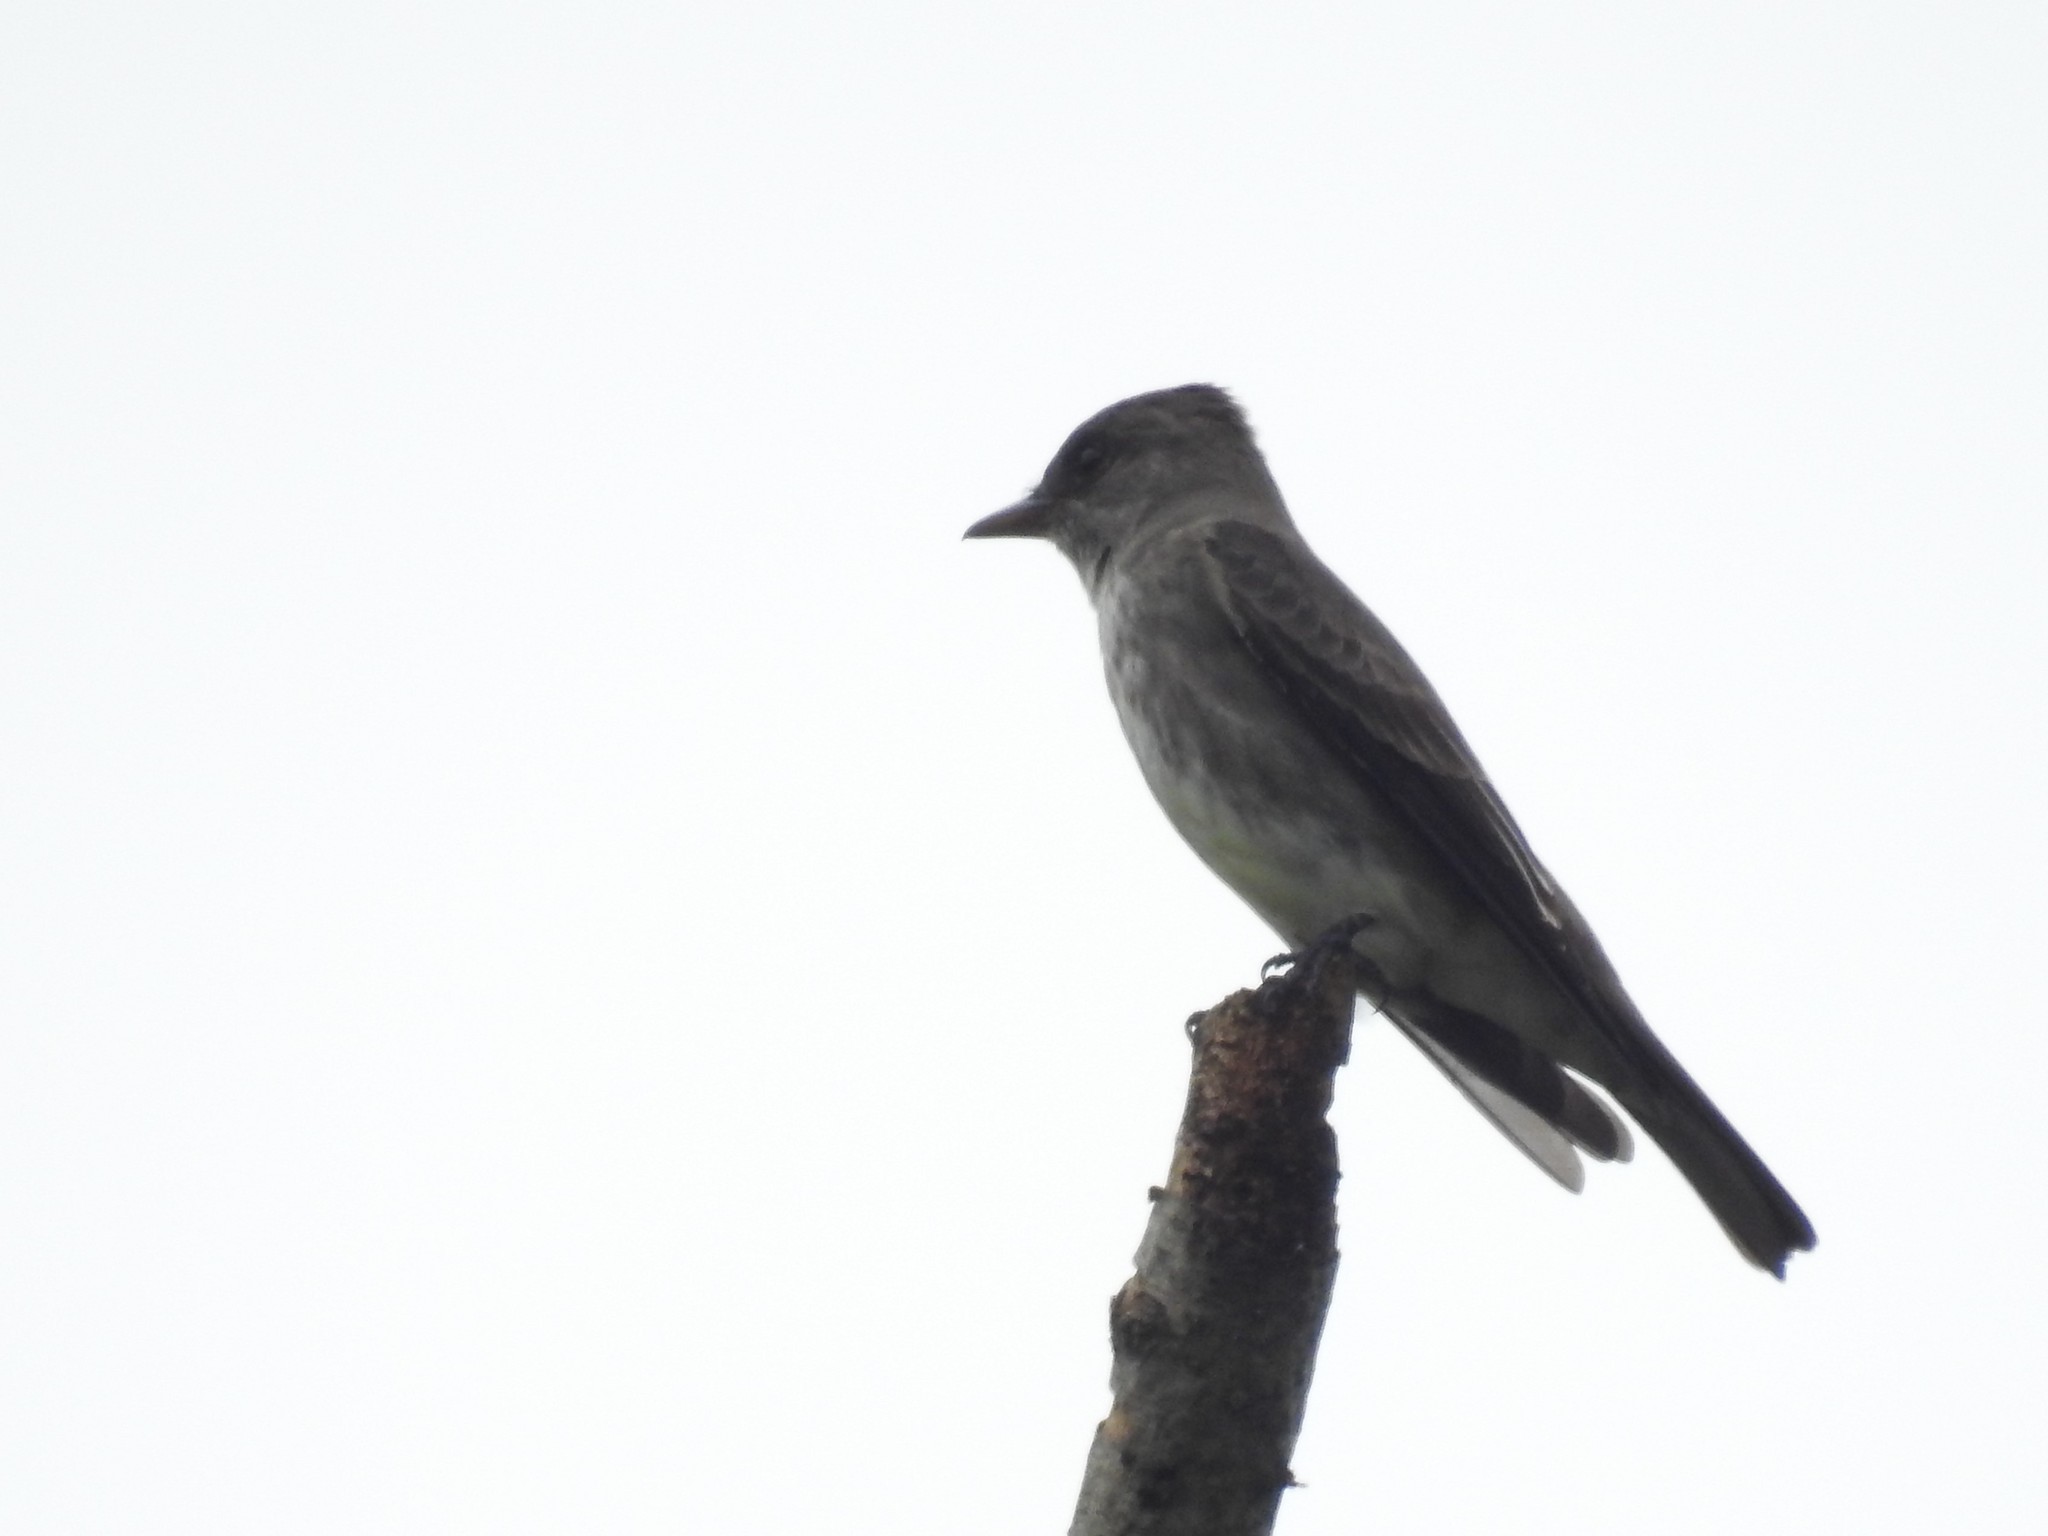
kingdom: Animalia
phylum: Chordata
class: Aves
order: Passeriformes
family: Tyrannidae
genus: Contopus
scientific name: Contopus cooperi
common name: Olive-sided flycatcher
